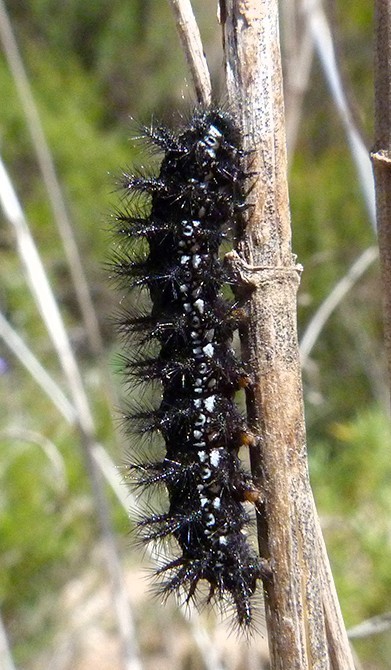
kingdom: Animalia
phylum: Arthropoda
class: Insecta
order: Lepidoptera
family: Nymphalidae
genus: Euphydryas
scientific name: Euphydryas desfontainii
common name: Spanish fritillary
